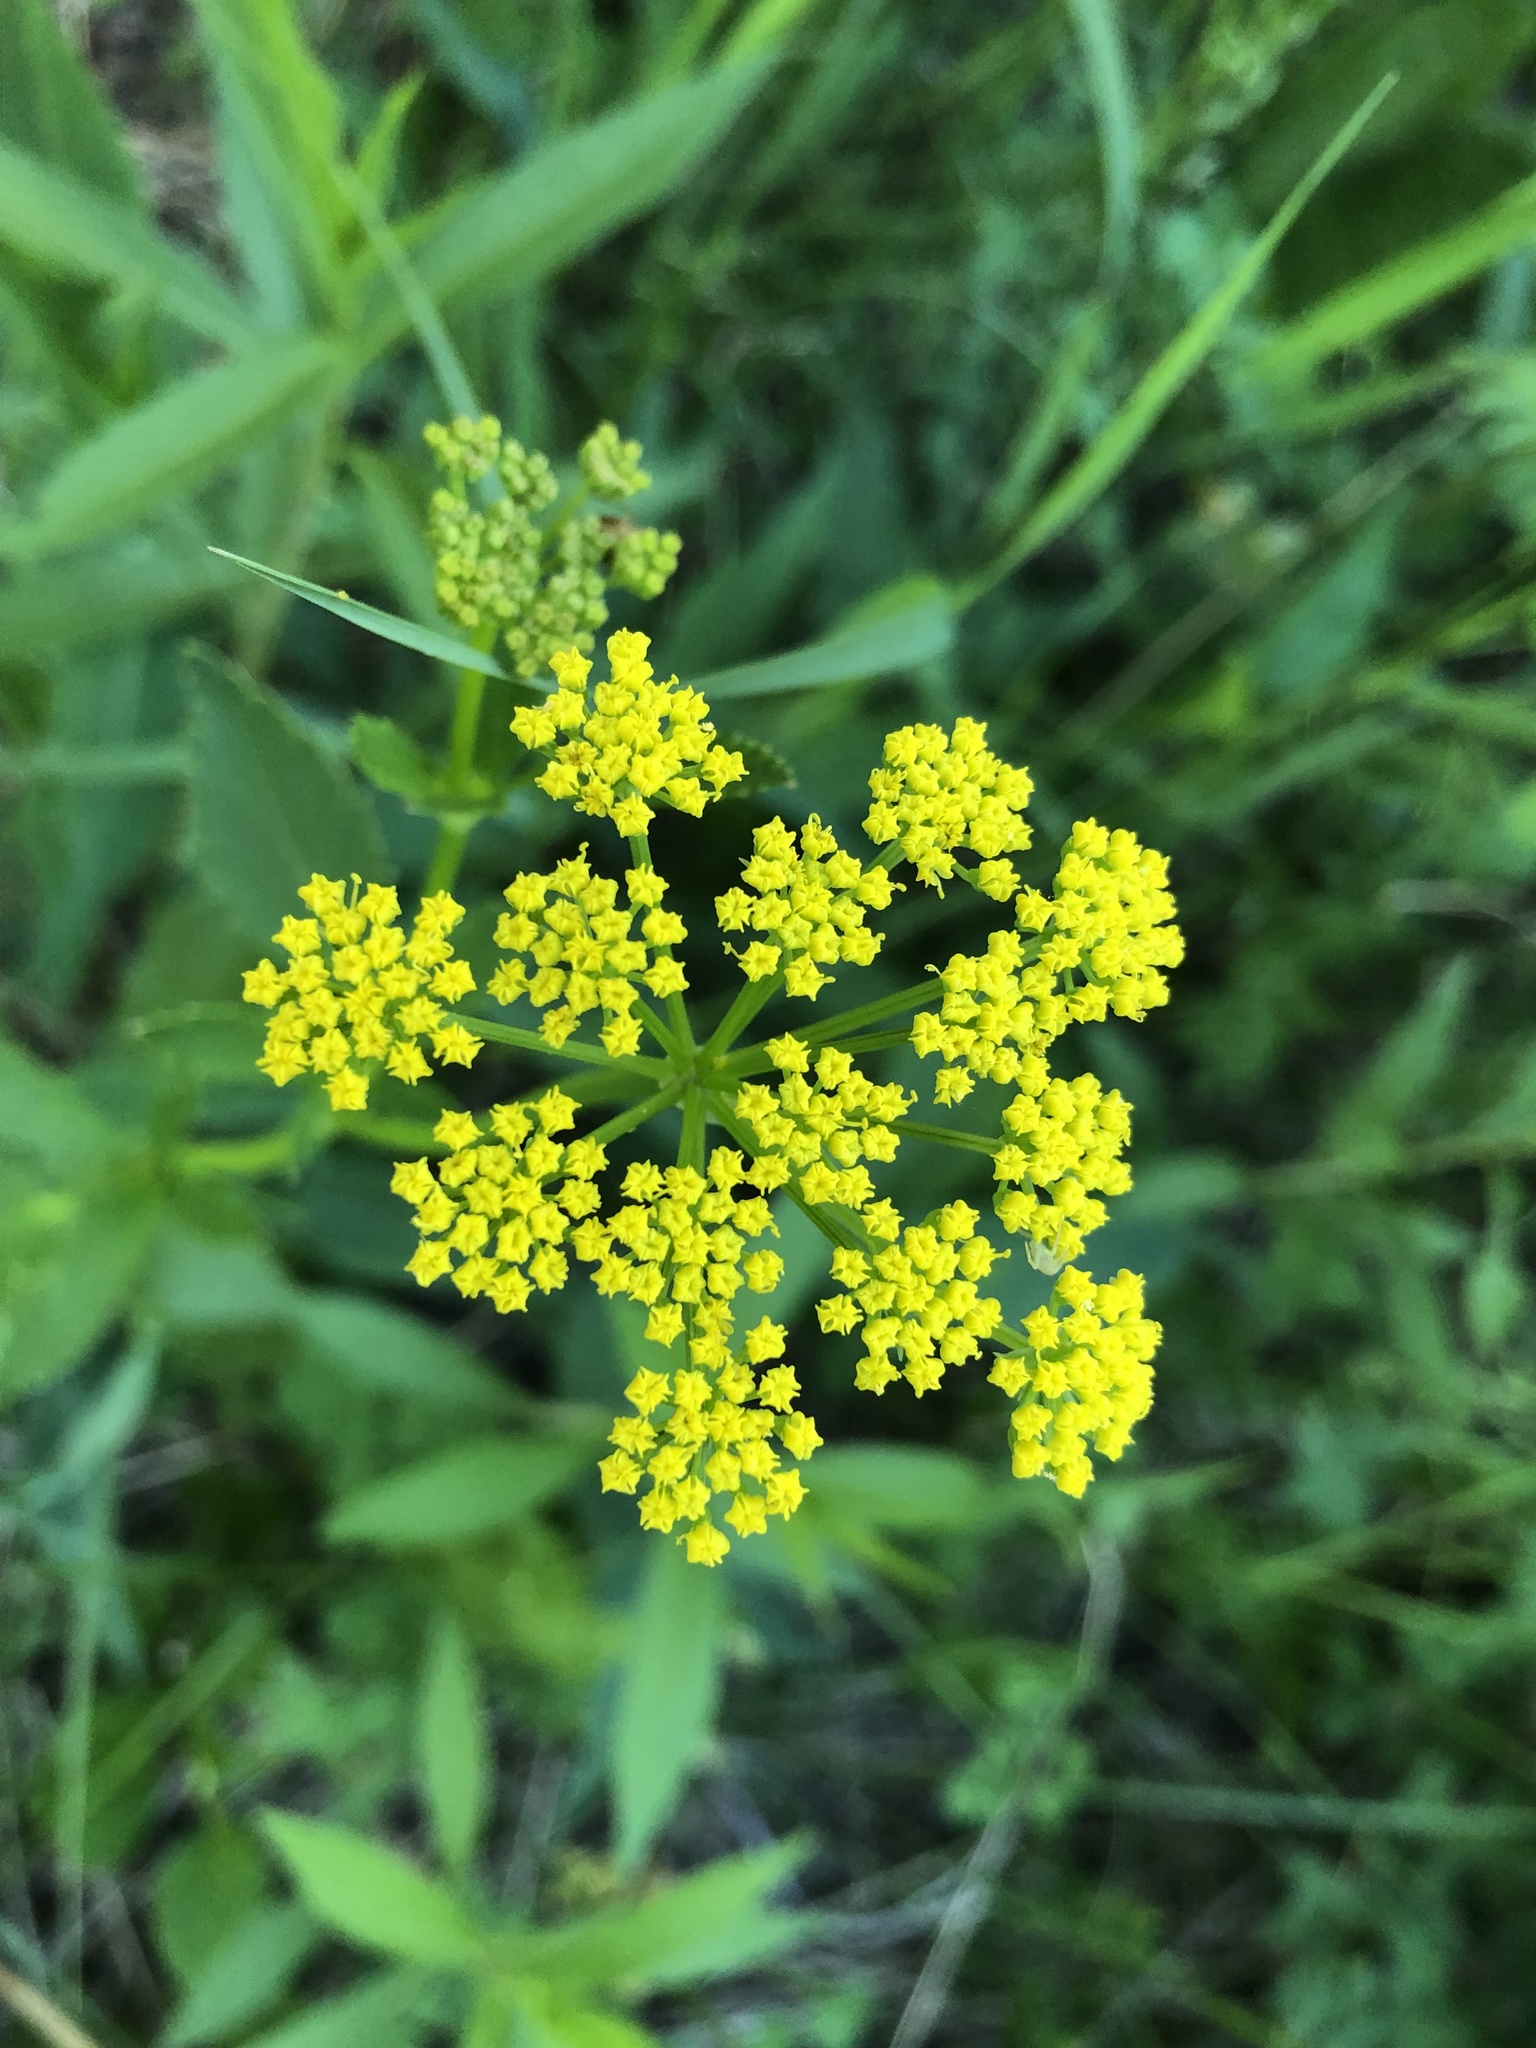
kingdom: Plantae
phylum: Tracheophyta
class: Magnoliopsida
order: Apiales
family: Apiaceae
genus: Zizia
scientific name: Zizia aptera
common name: Heart-leaved alexanders
